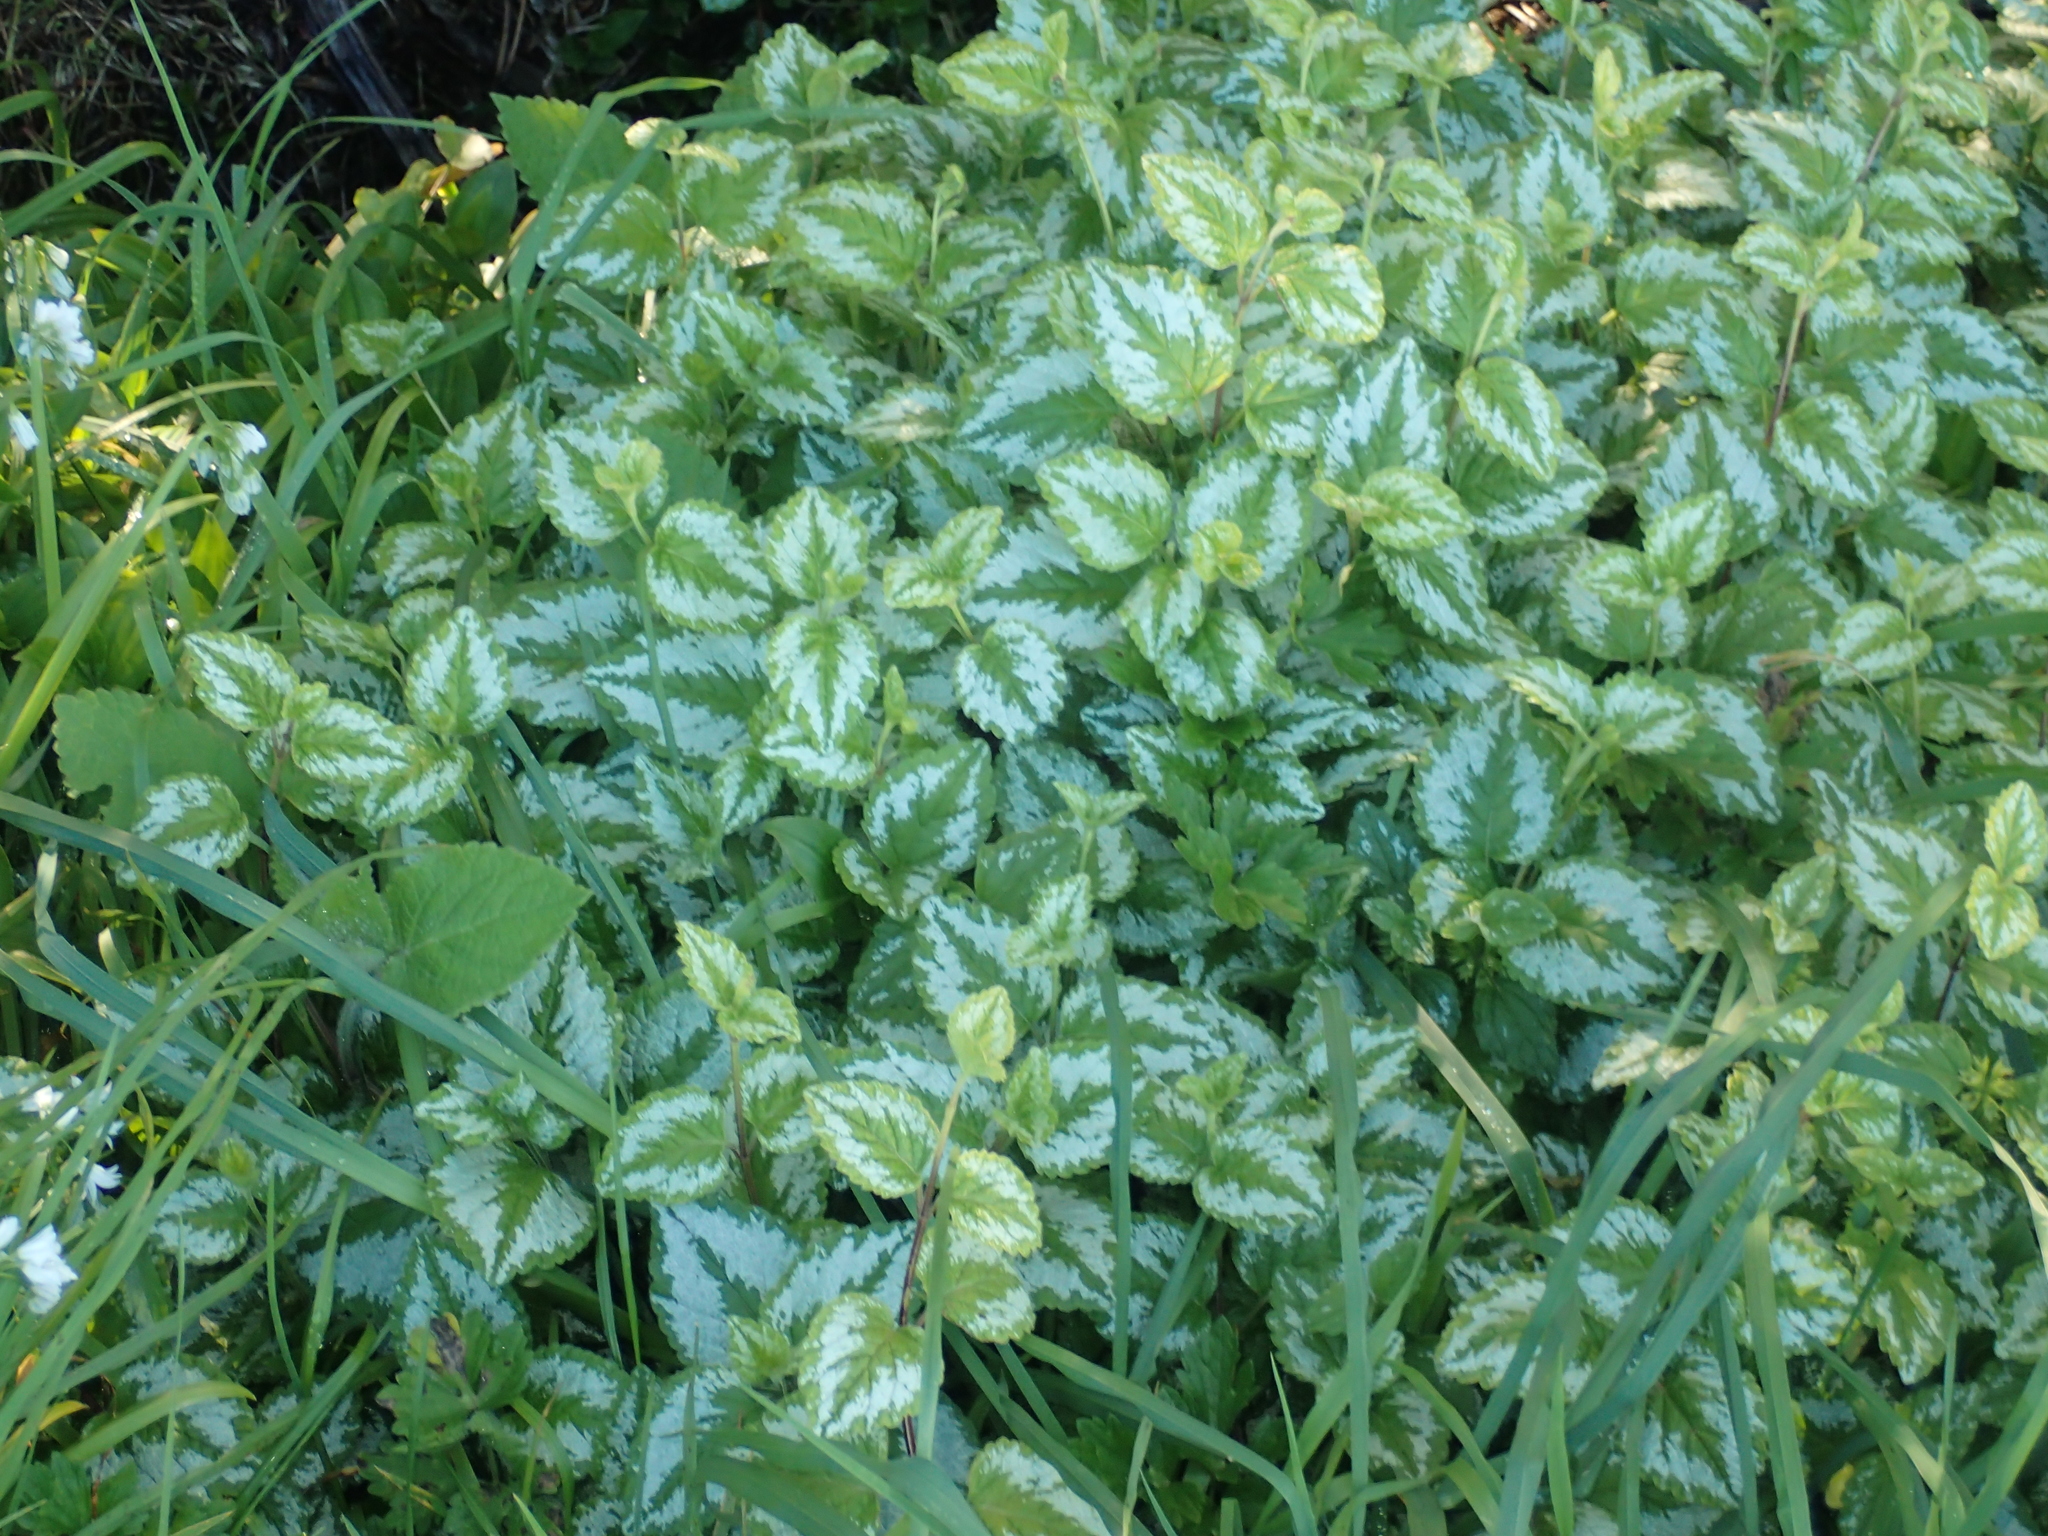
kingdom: Plantae
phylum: Tracheophyta
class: Magnoliopsida
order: Lamiales
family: Lamiaceae
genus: Lamium
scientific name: Lamium galeobdolon
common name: Yellow archangel
